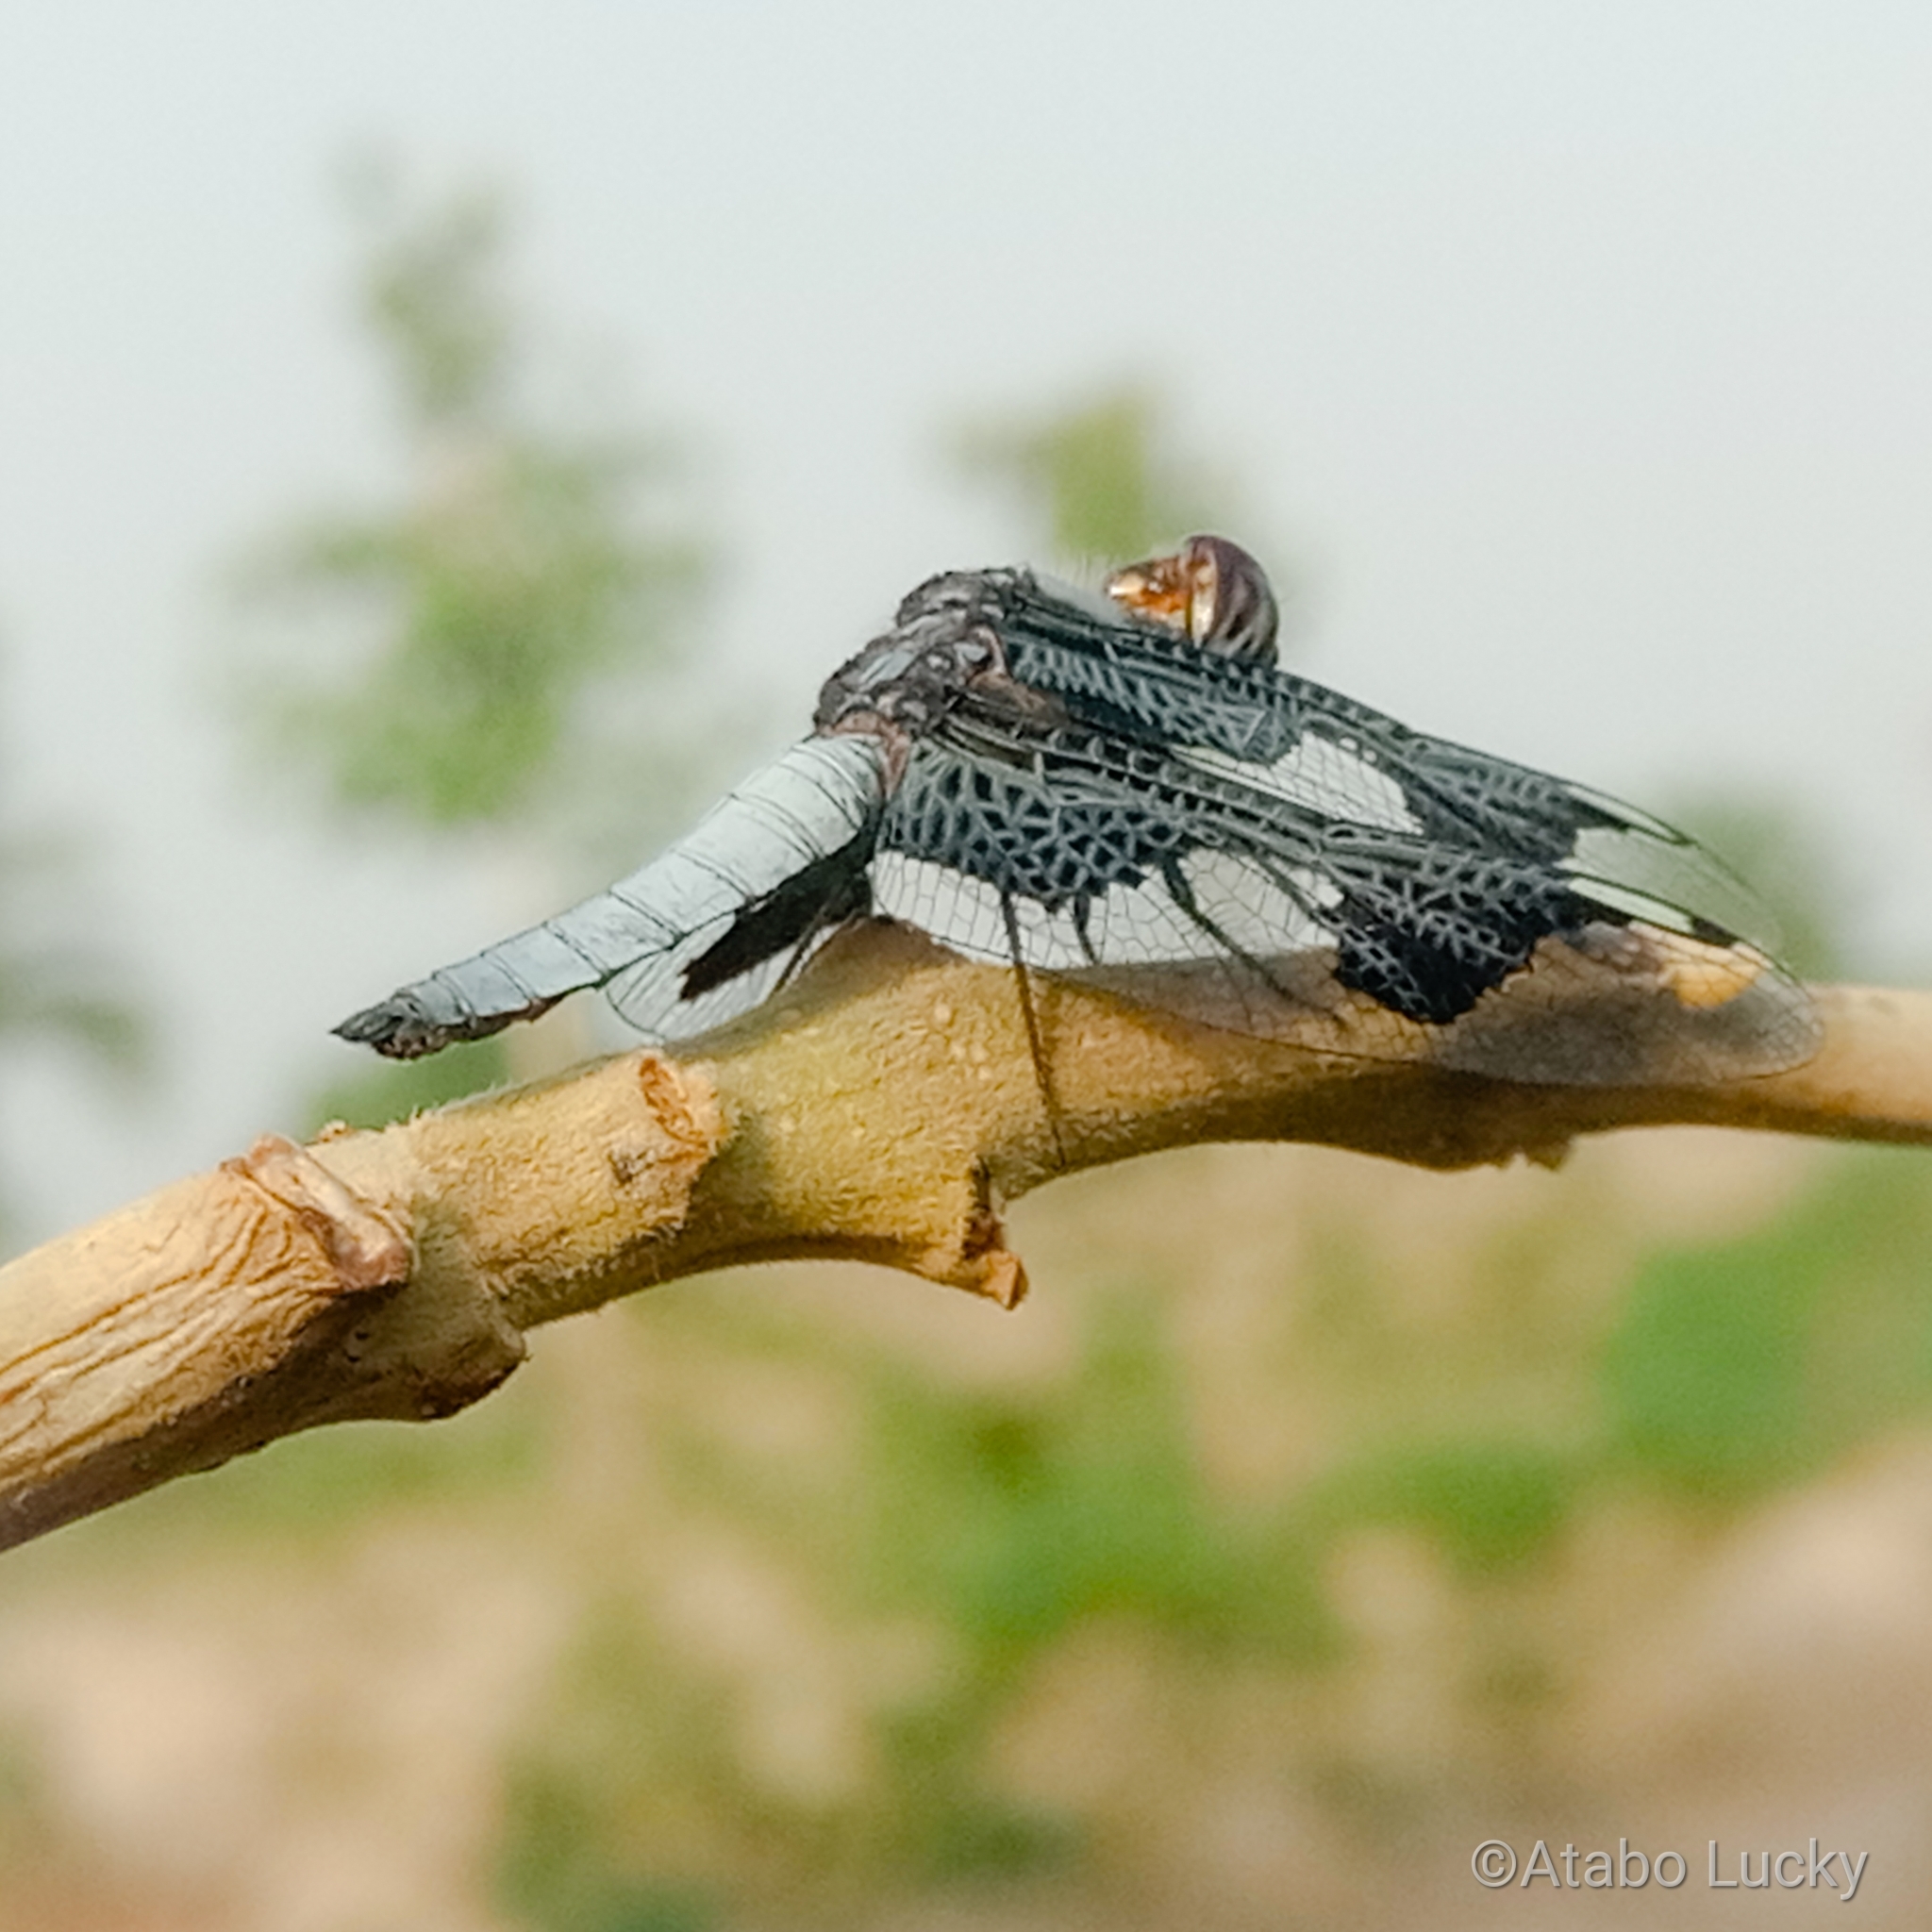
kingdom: Animalia
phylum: Arthropoda
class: Insecta
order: Odonata
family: Libellulidae
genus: Palpopleura
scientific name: Palpopleura portia
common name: Portia widow
